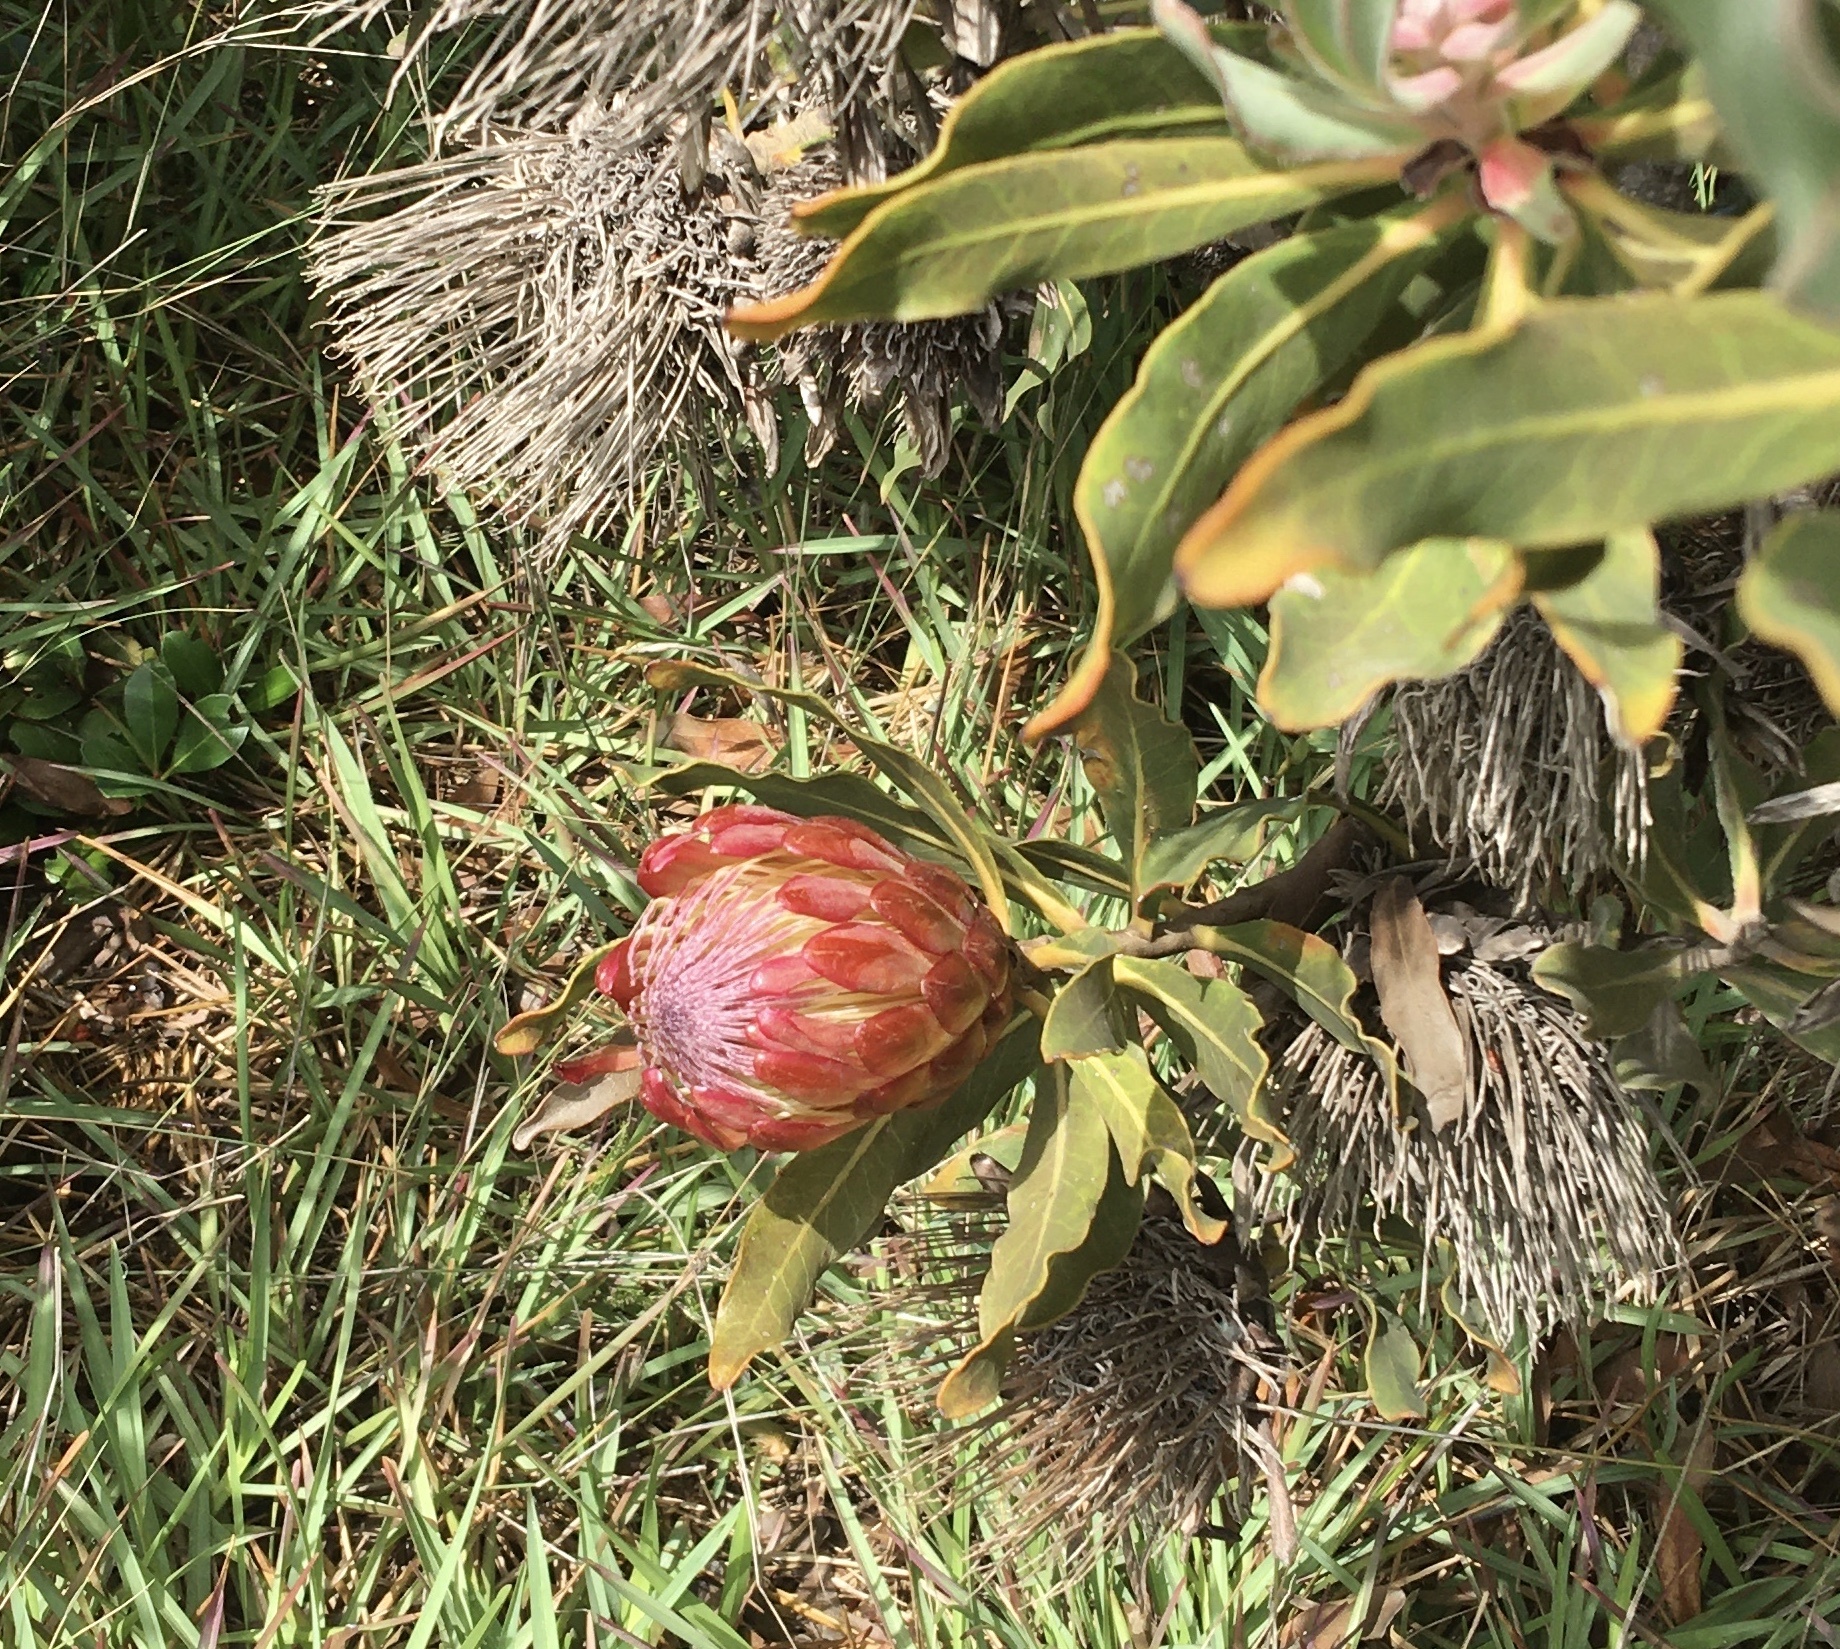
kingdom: Plantae
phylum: Tracheophyta
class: Magnoliopsida
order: Proteales
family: Proteaceae
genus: Protea
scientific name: Protea susannae
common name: Foetid-leaf sugarbush
